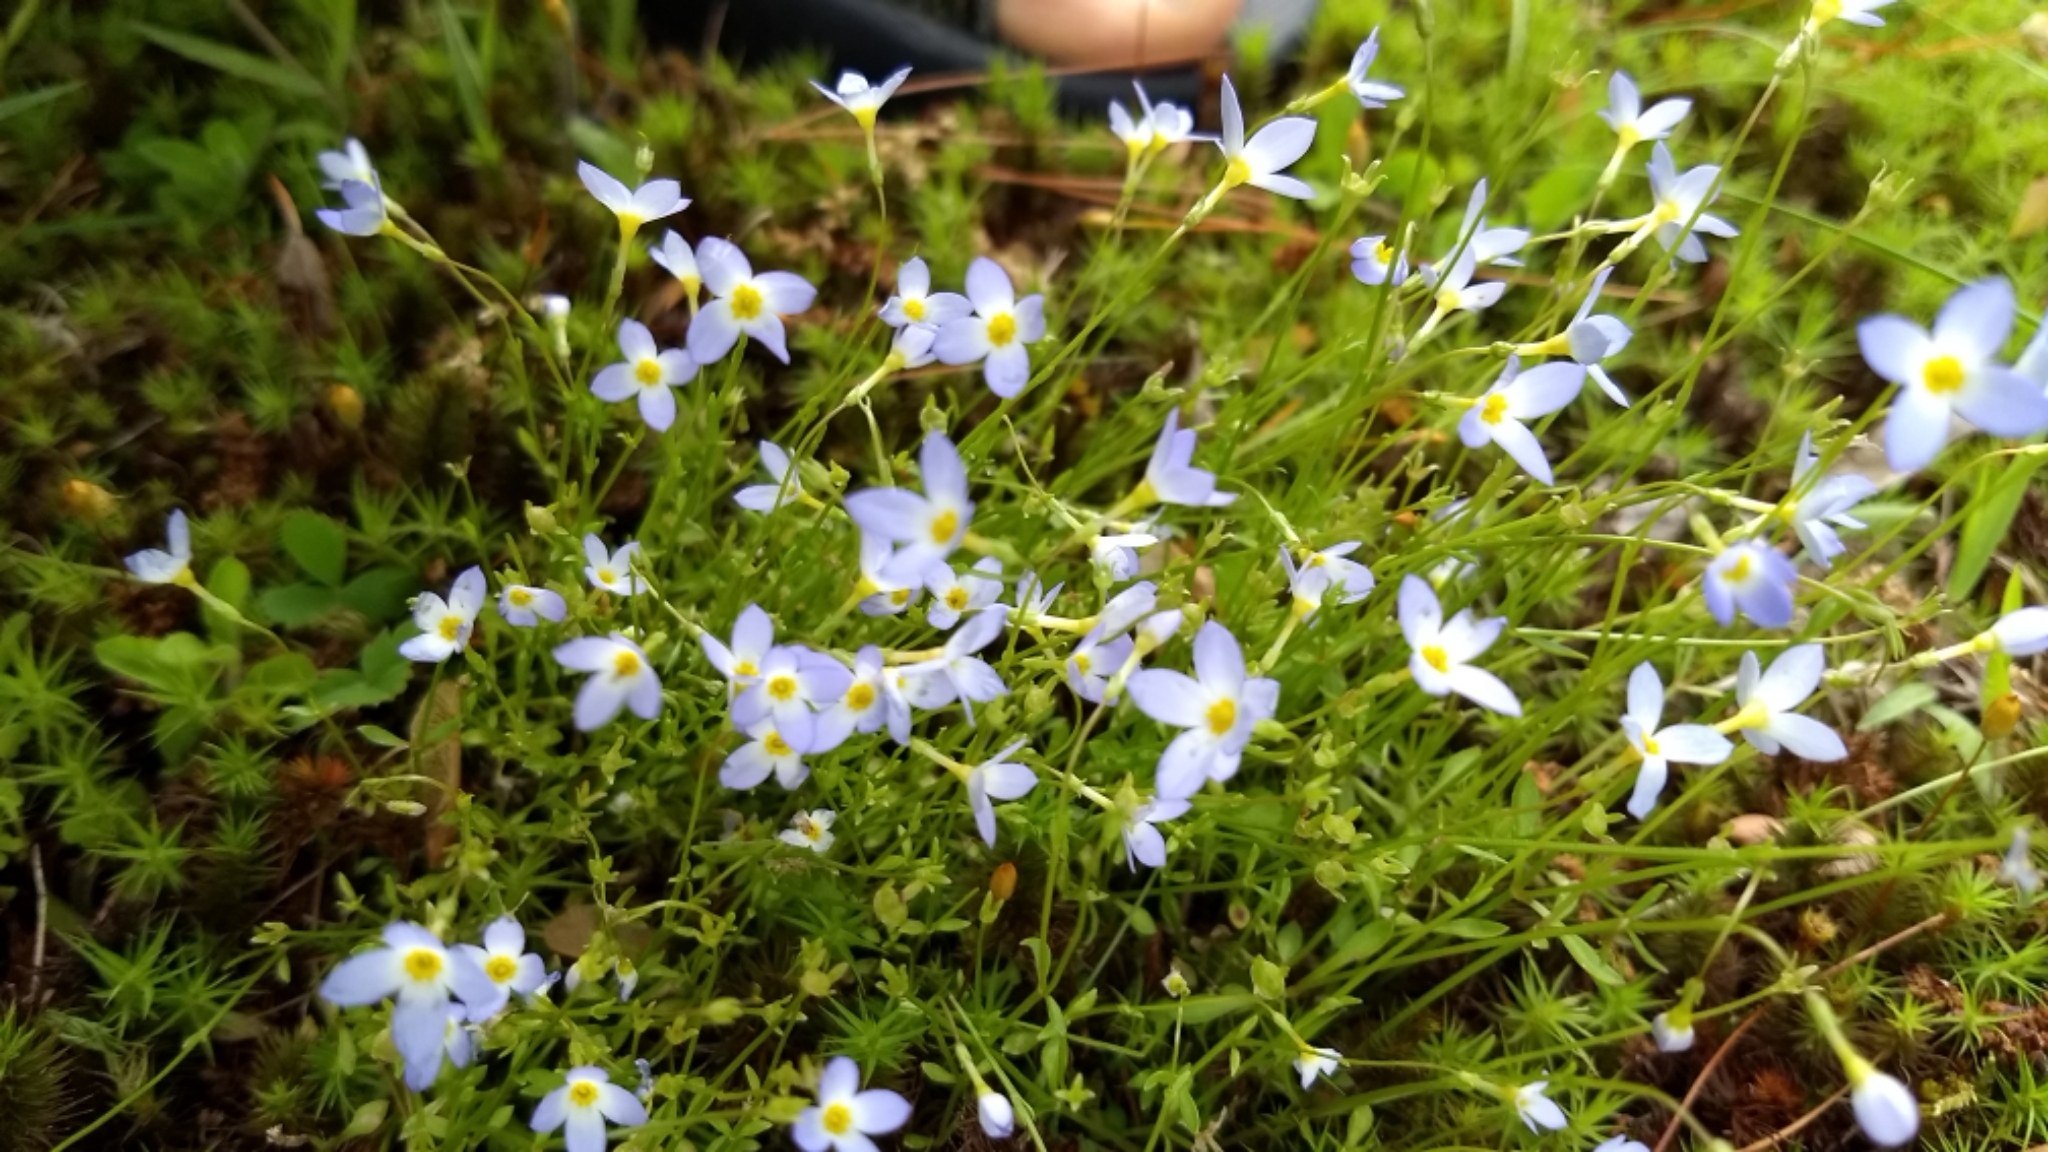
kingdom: Plantae
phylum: Tracheophyta
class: Magnoliopsida
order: Gentianales
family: Rubiaceae
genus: Houstonia
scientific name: Houstonia caerulea
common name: Bluets
